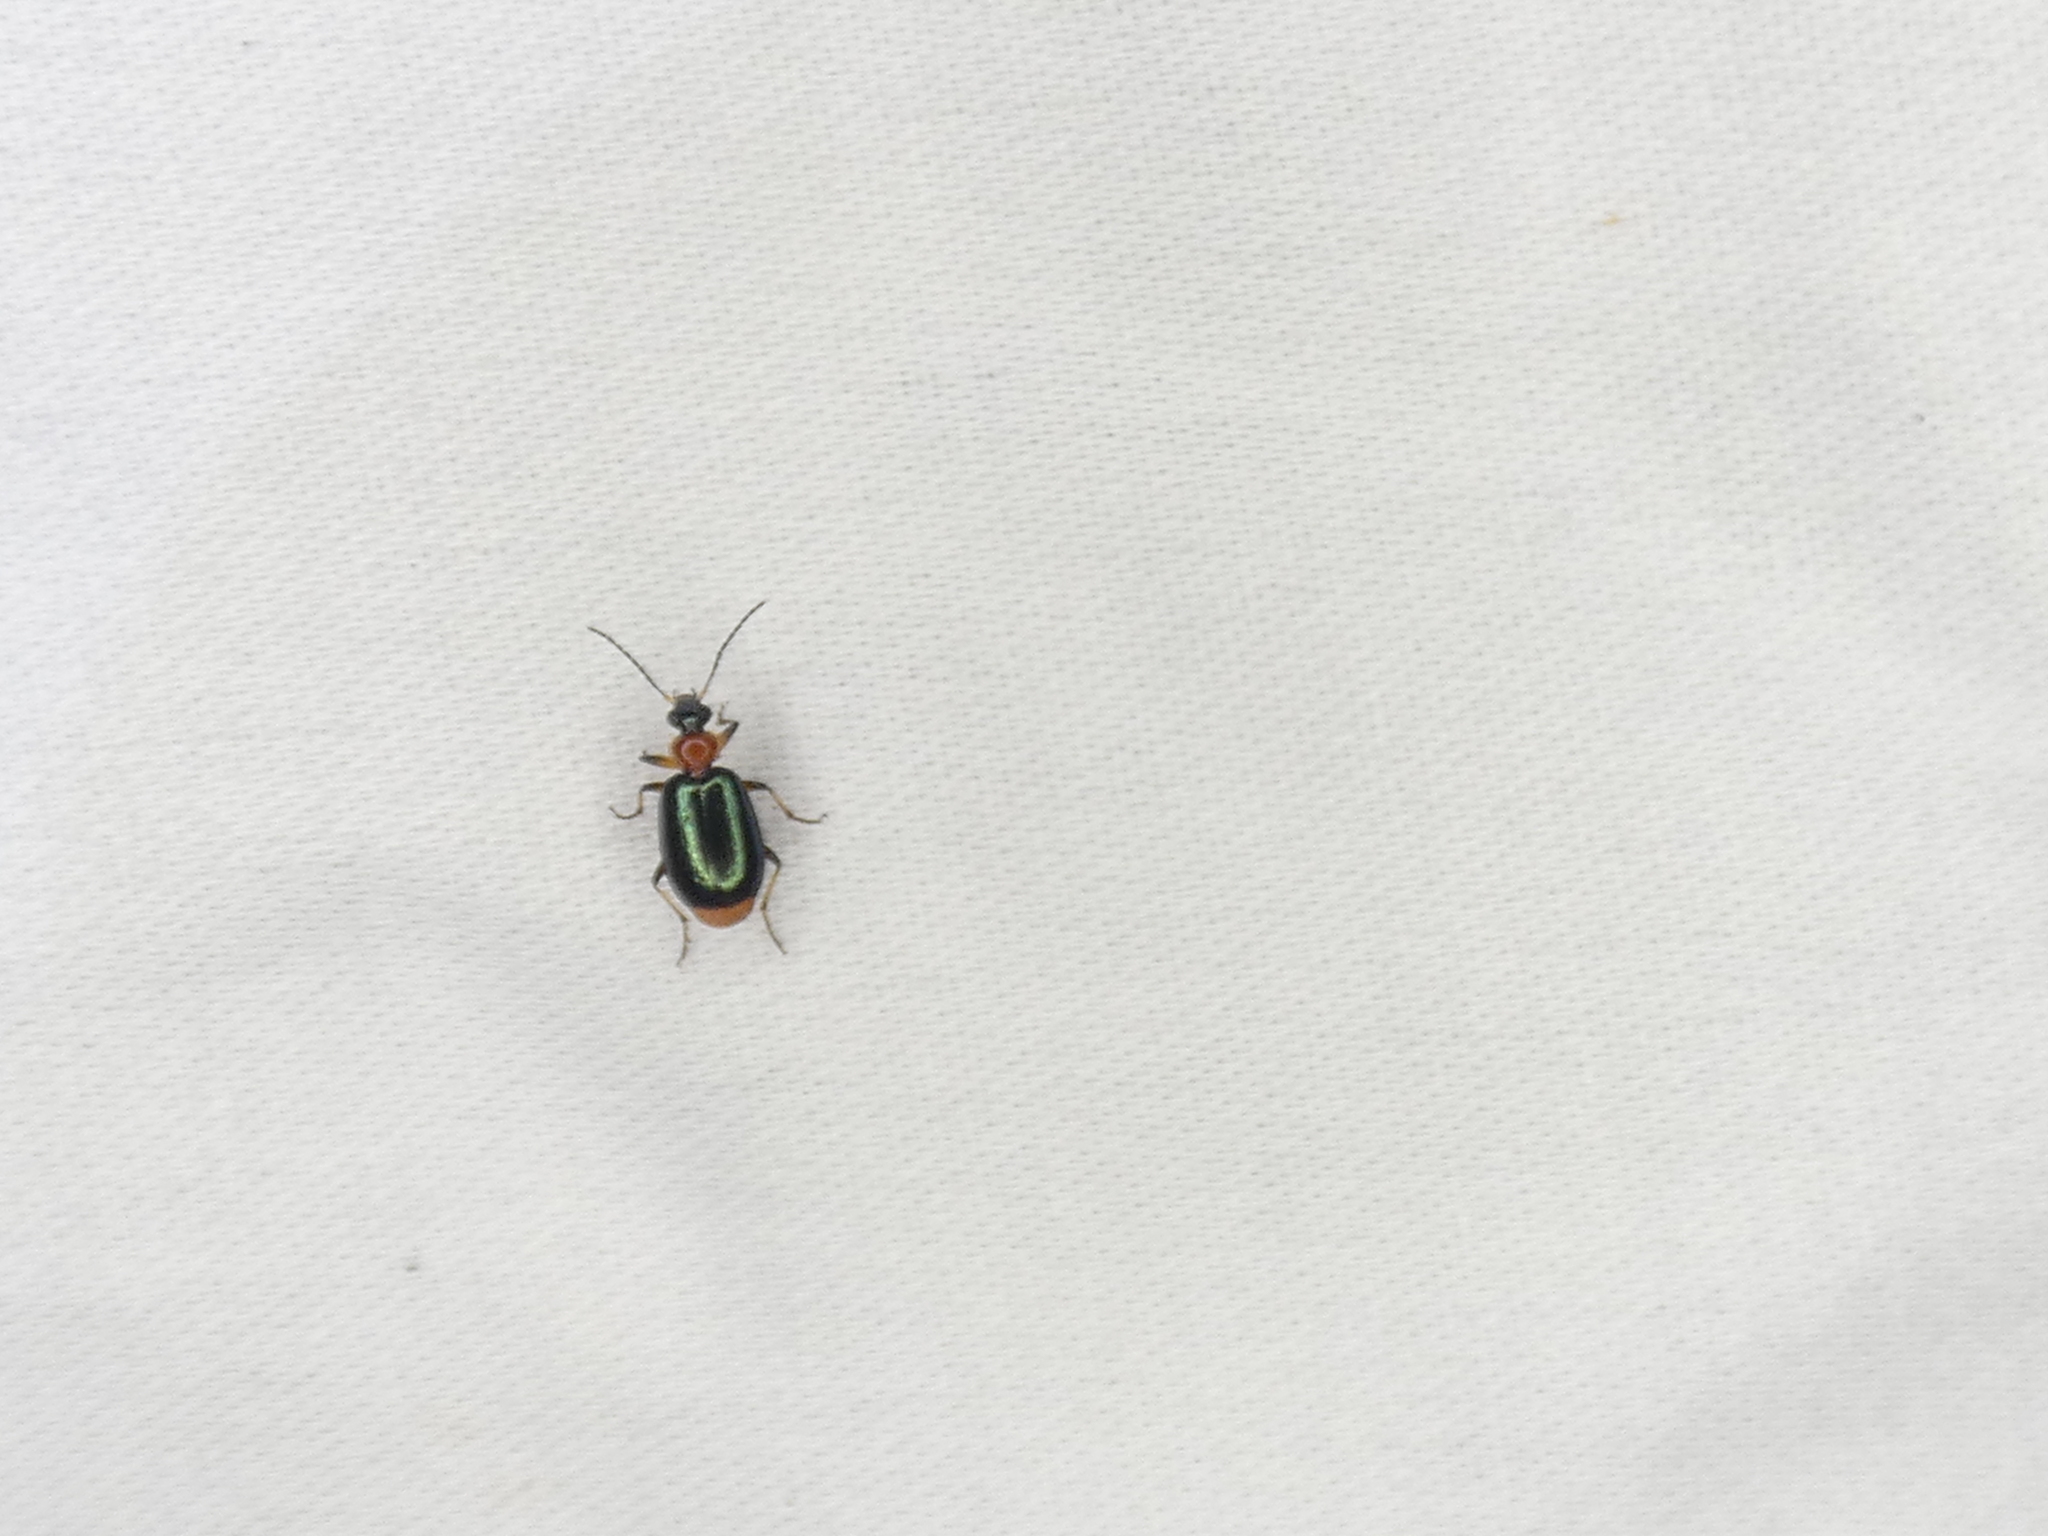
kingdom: Animalia
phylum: Arthropoda
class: Insecta
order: Coleoptera
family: Carabidae
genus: Lebia
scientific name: Lebia viridipennis
